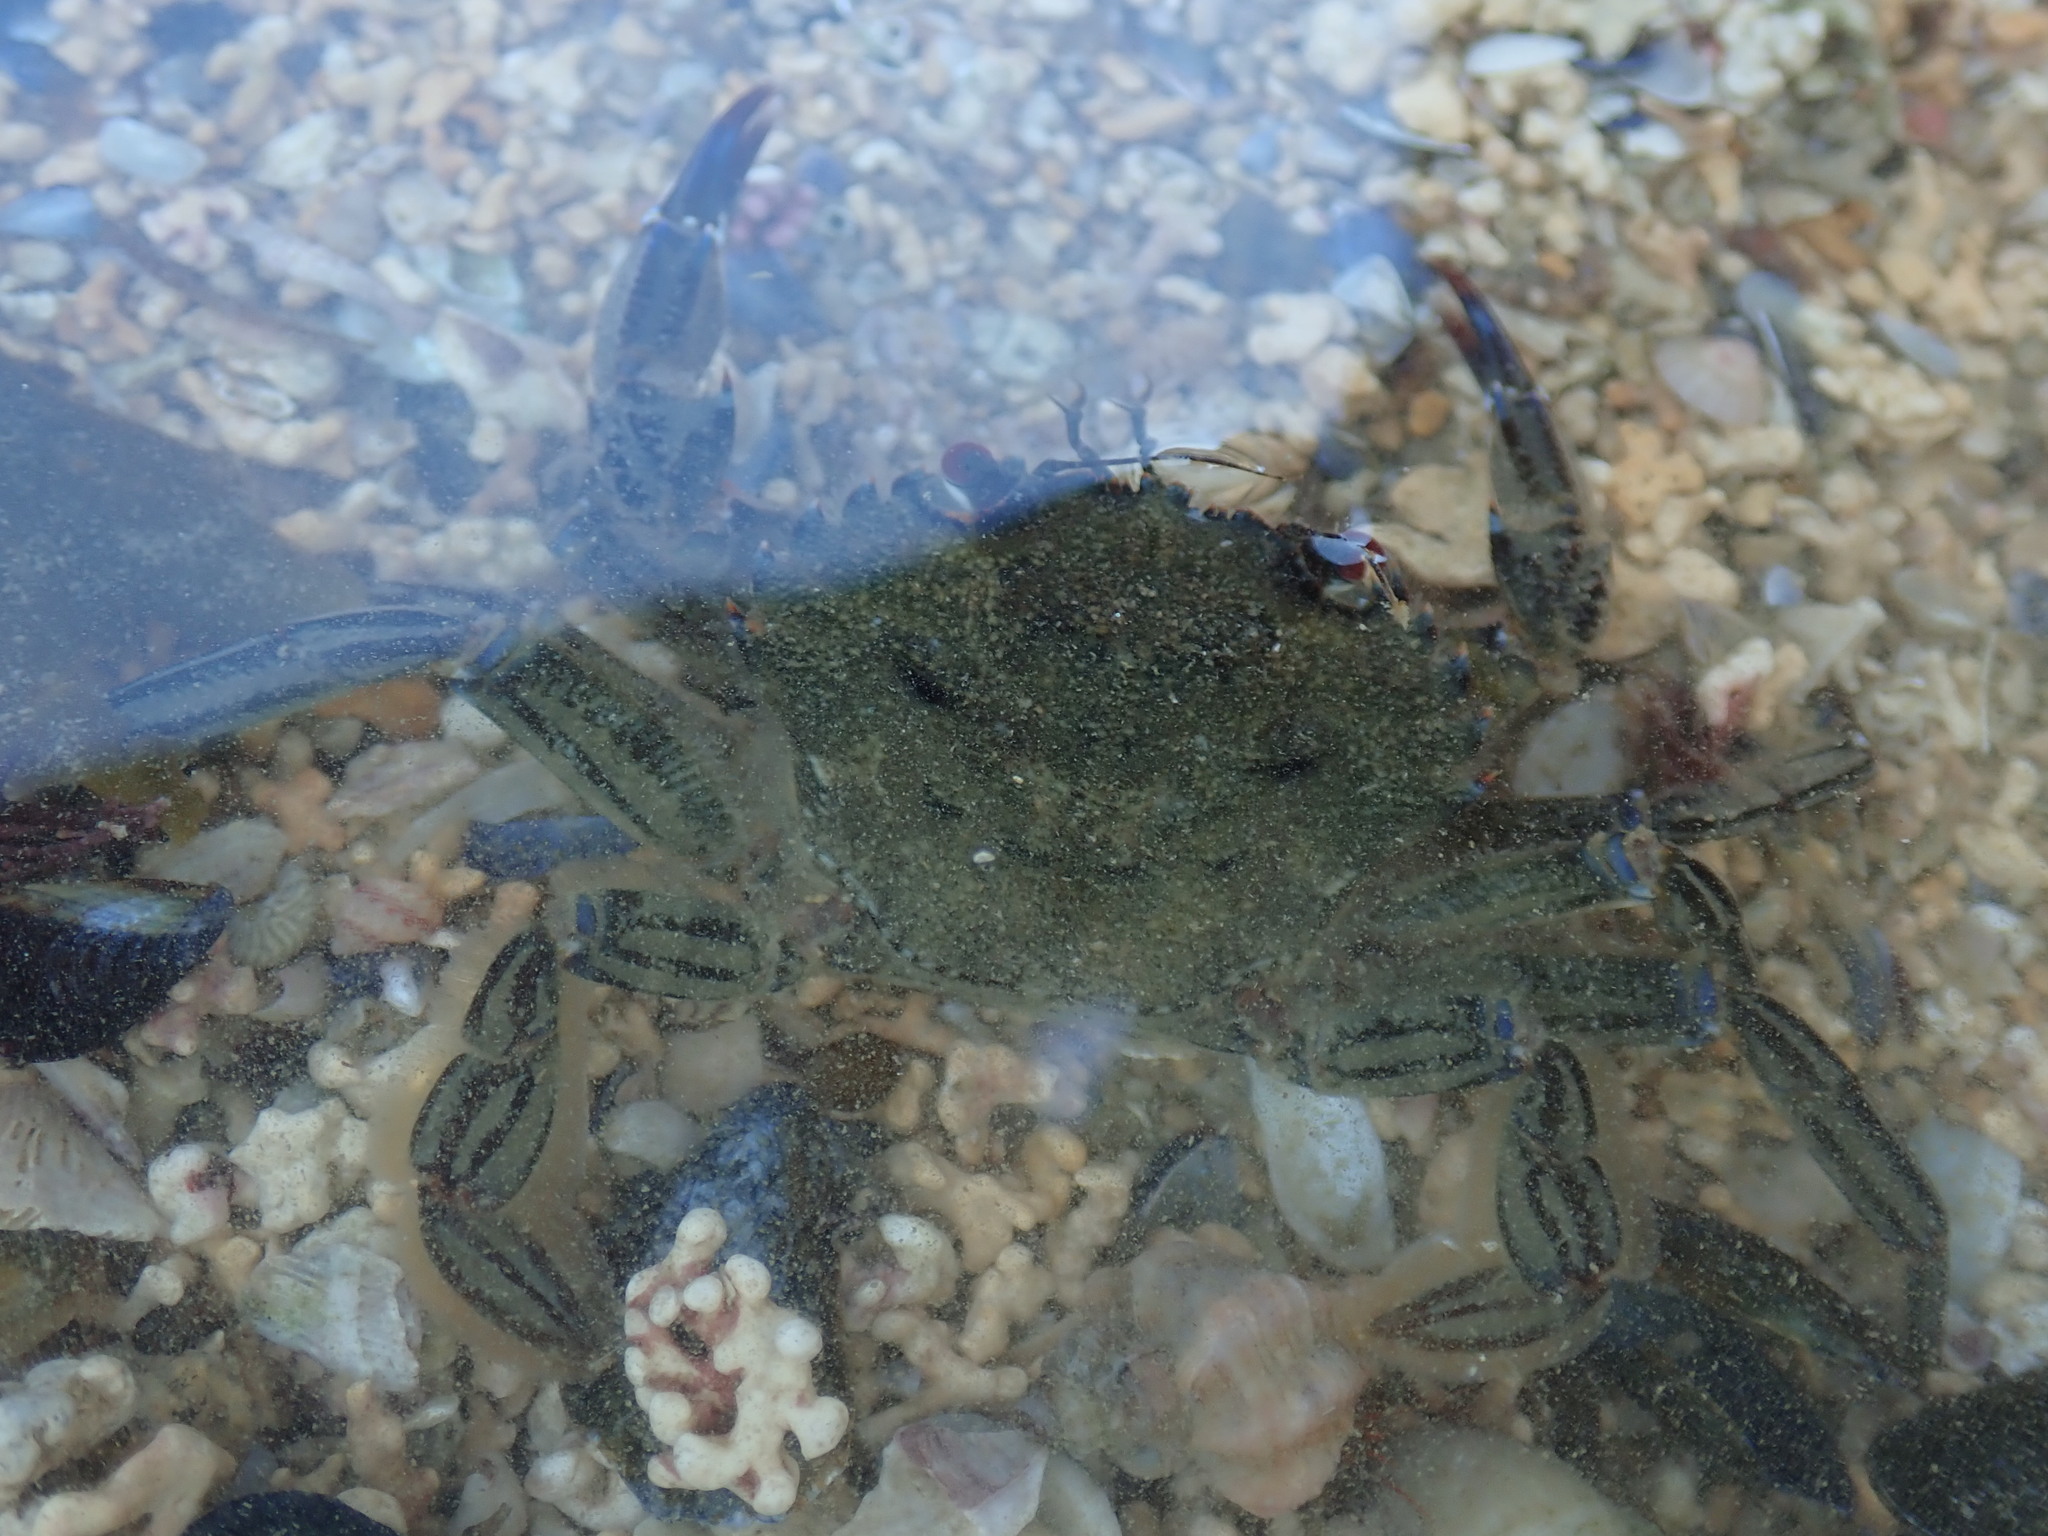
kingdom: Animalia
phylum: Arthropoda
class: Malacostraca
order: Decapoda
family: Polybiidae
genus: Necora
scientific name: Necora puber
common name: Velvet swimming crab
